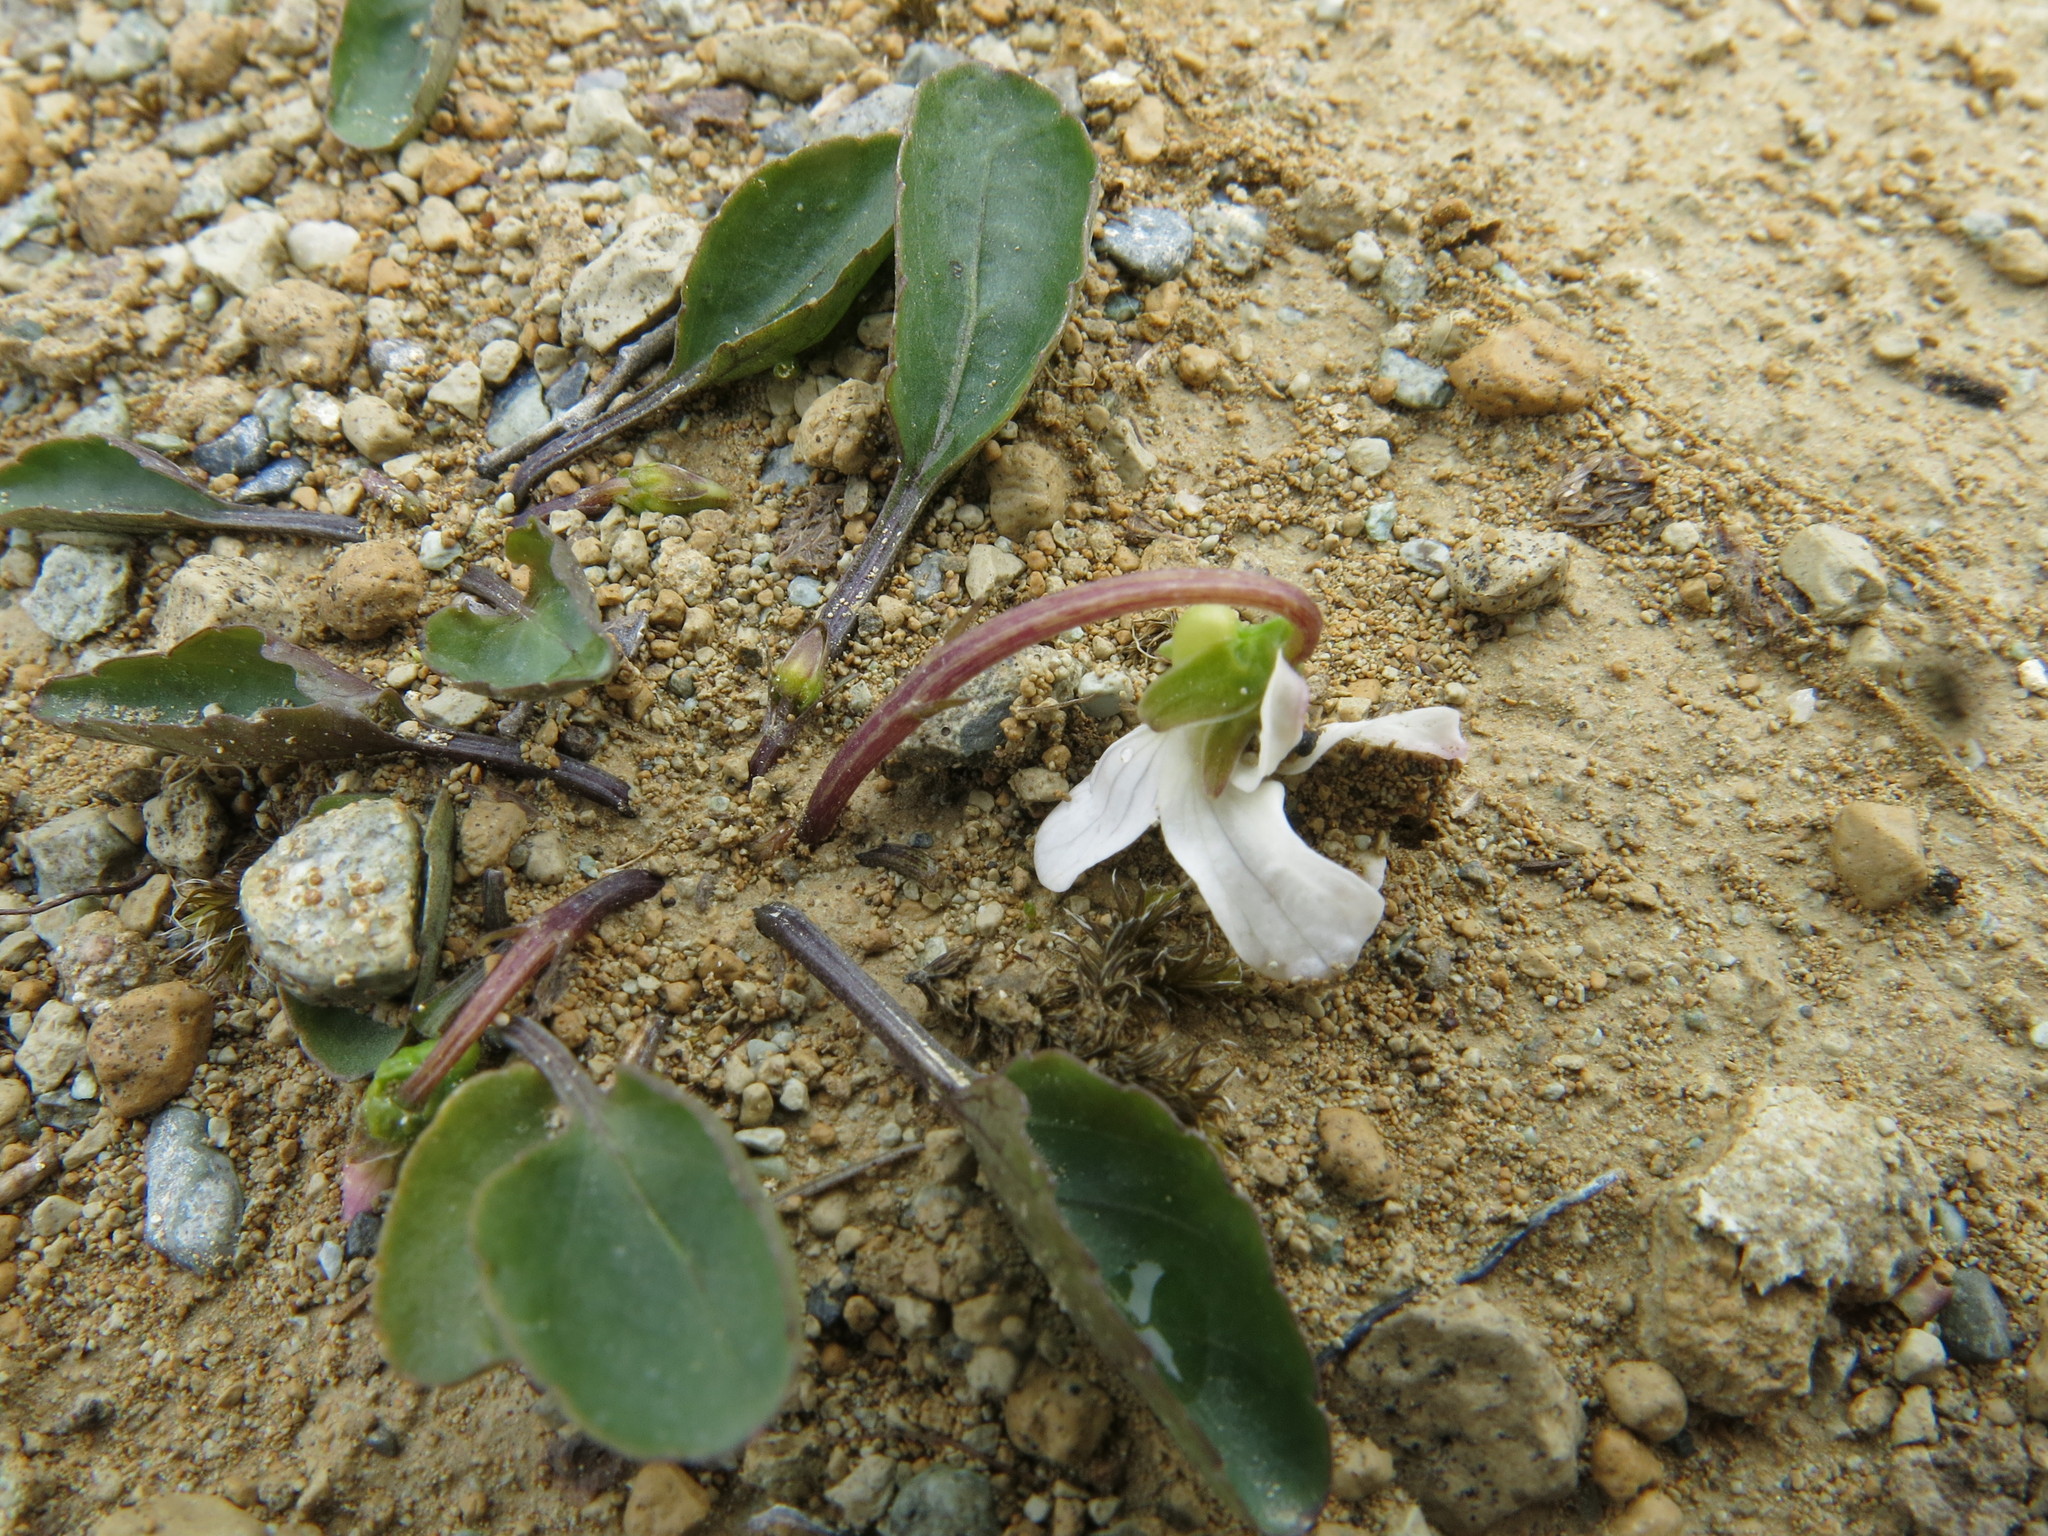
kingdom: Plantae
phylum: Tracheophyta
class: Magnoliopsida
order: Malpighiales
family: Violaceae
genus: Viola
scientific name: Viola cunninghamii
